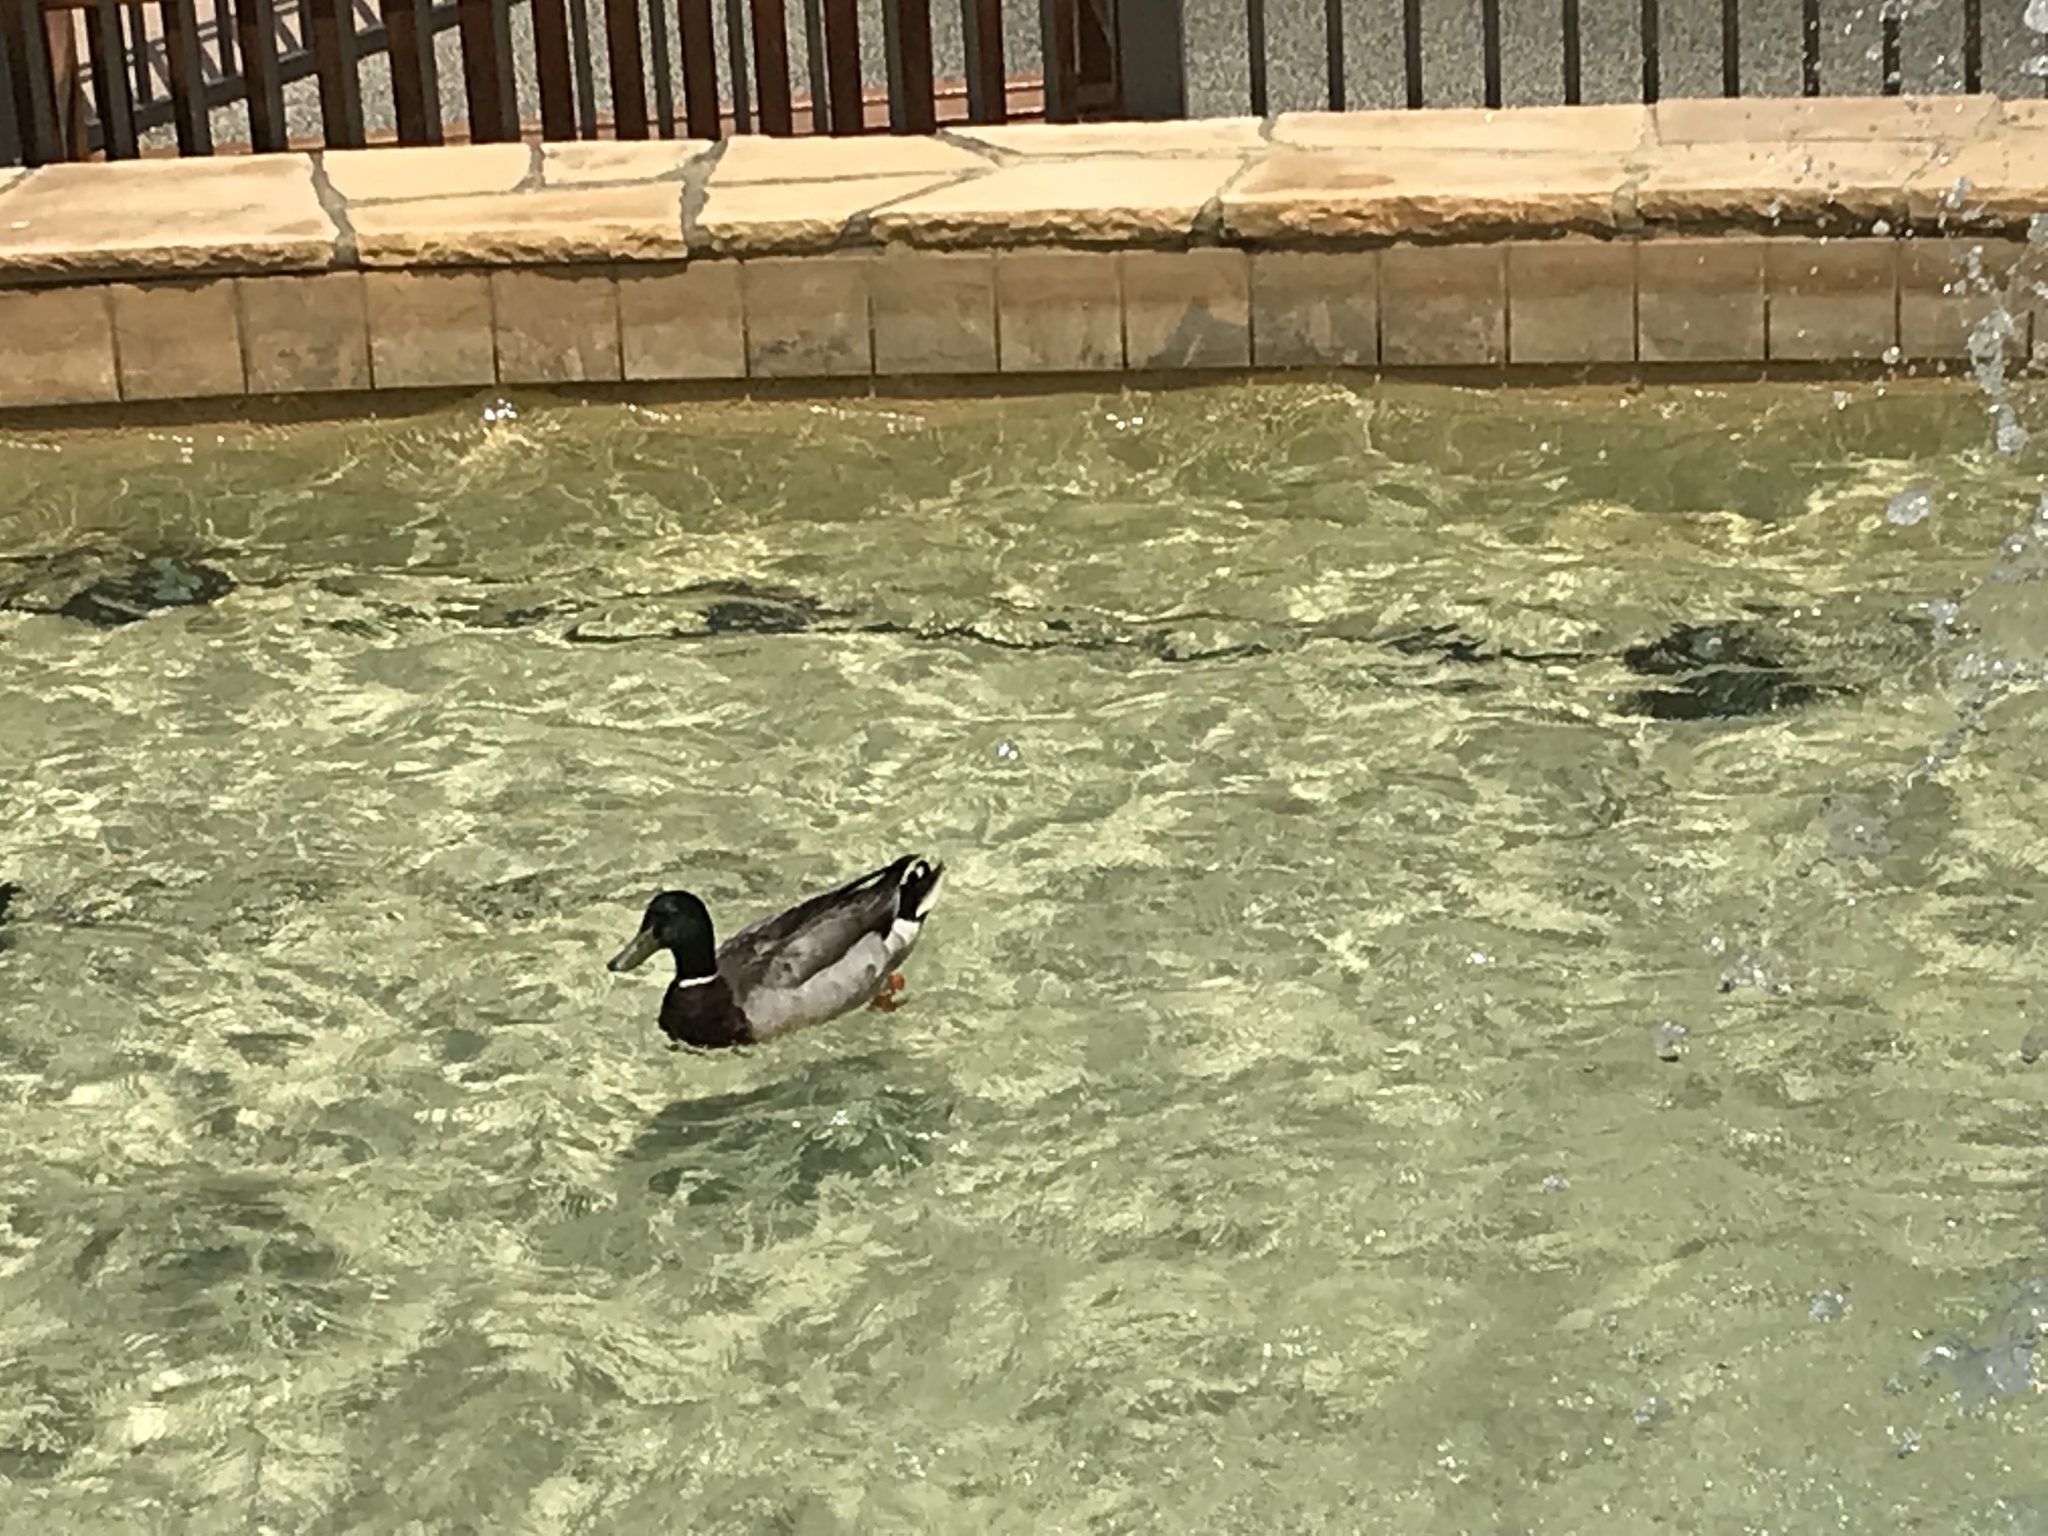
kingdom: Animalia
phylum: Chordata
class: Aves
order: Anseriformes
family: Anatidae
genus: Anas
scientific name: Anas platyrhynchos
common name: Mallard
